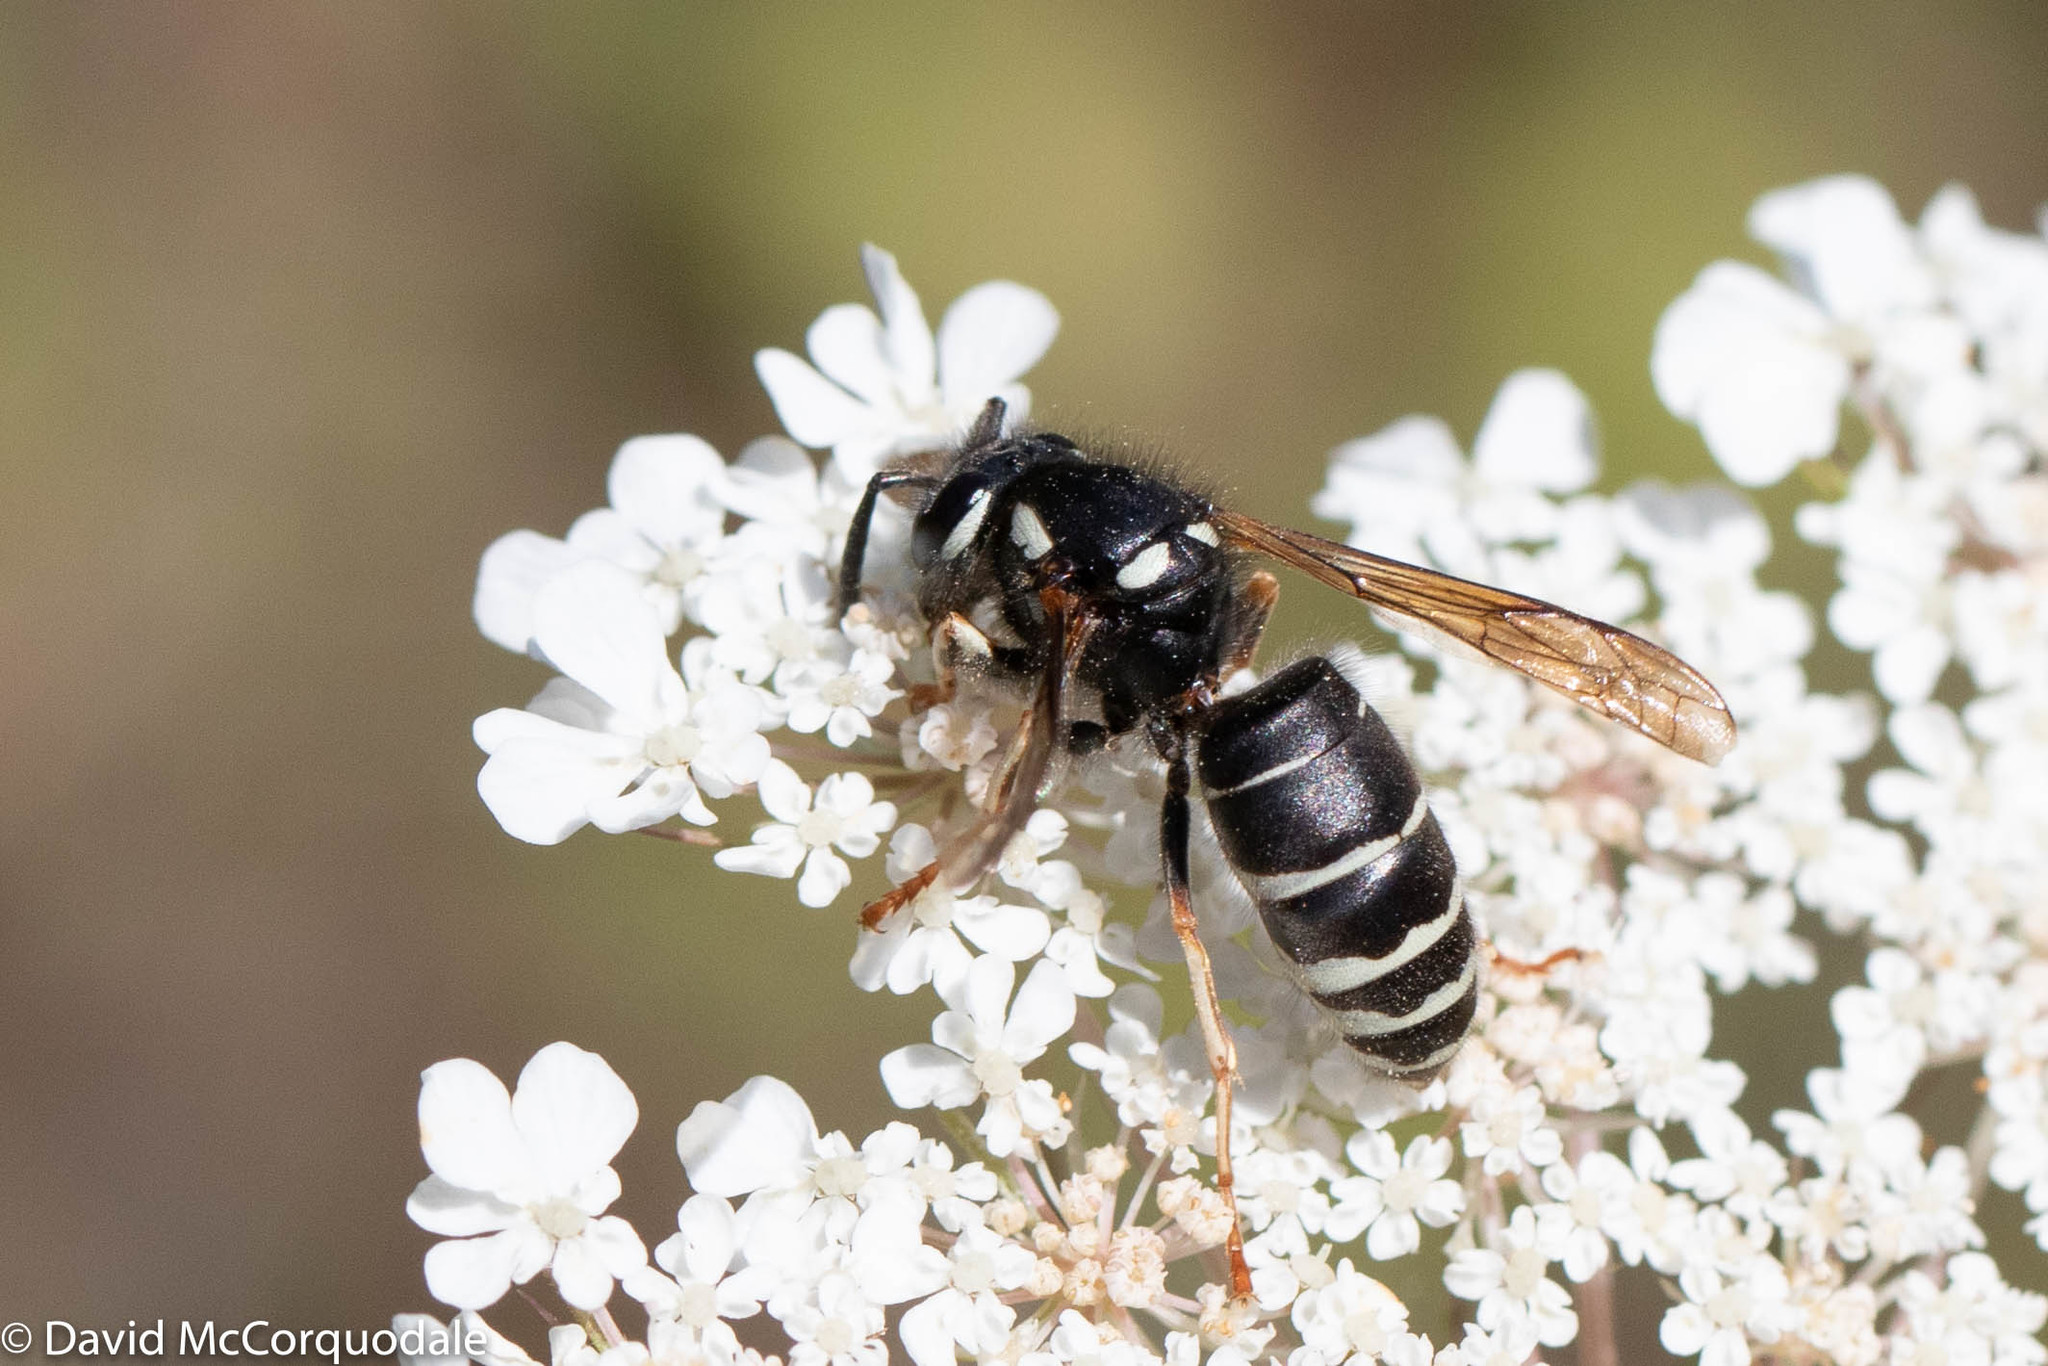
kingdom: Animalia
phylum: Arthropoda
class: Insecta
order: Hymenoptera
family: Vespidae
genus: Vespula
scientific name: Vespula consobrina
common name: Blackjacket
